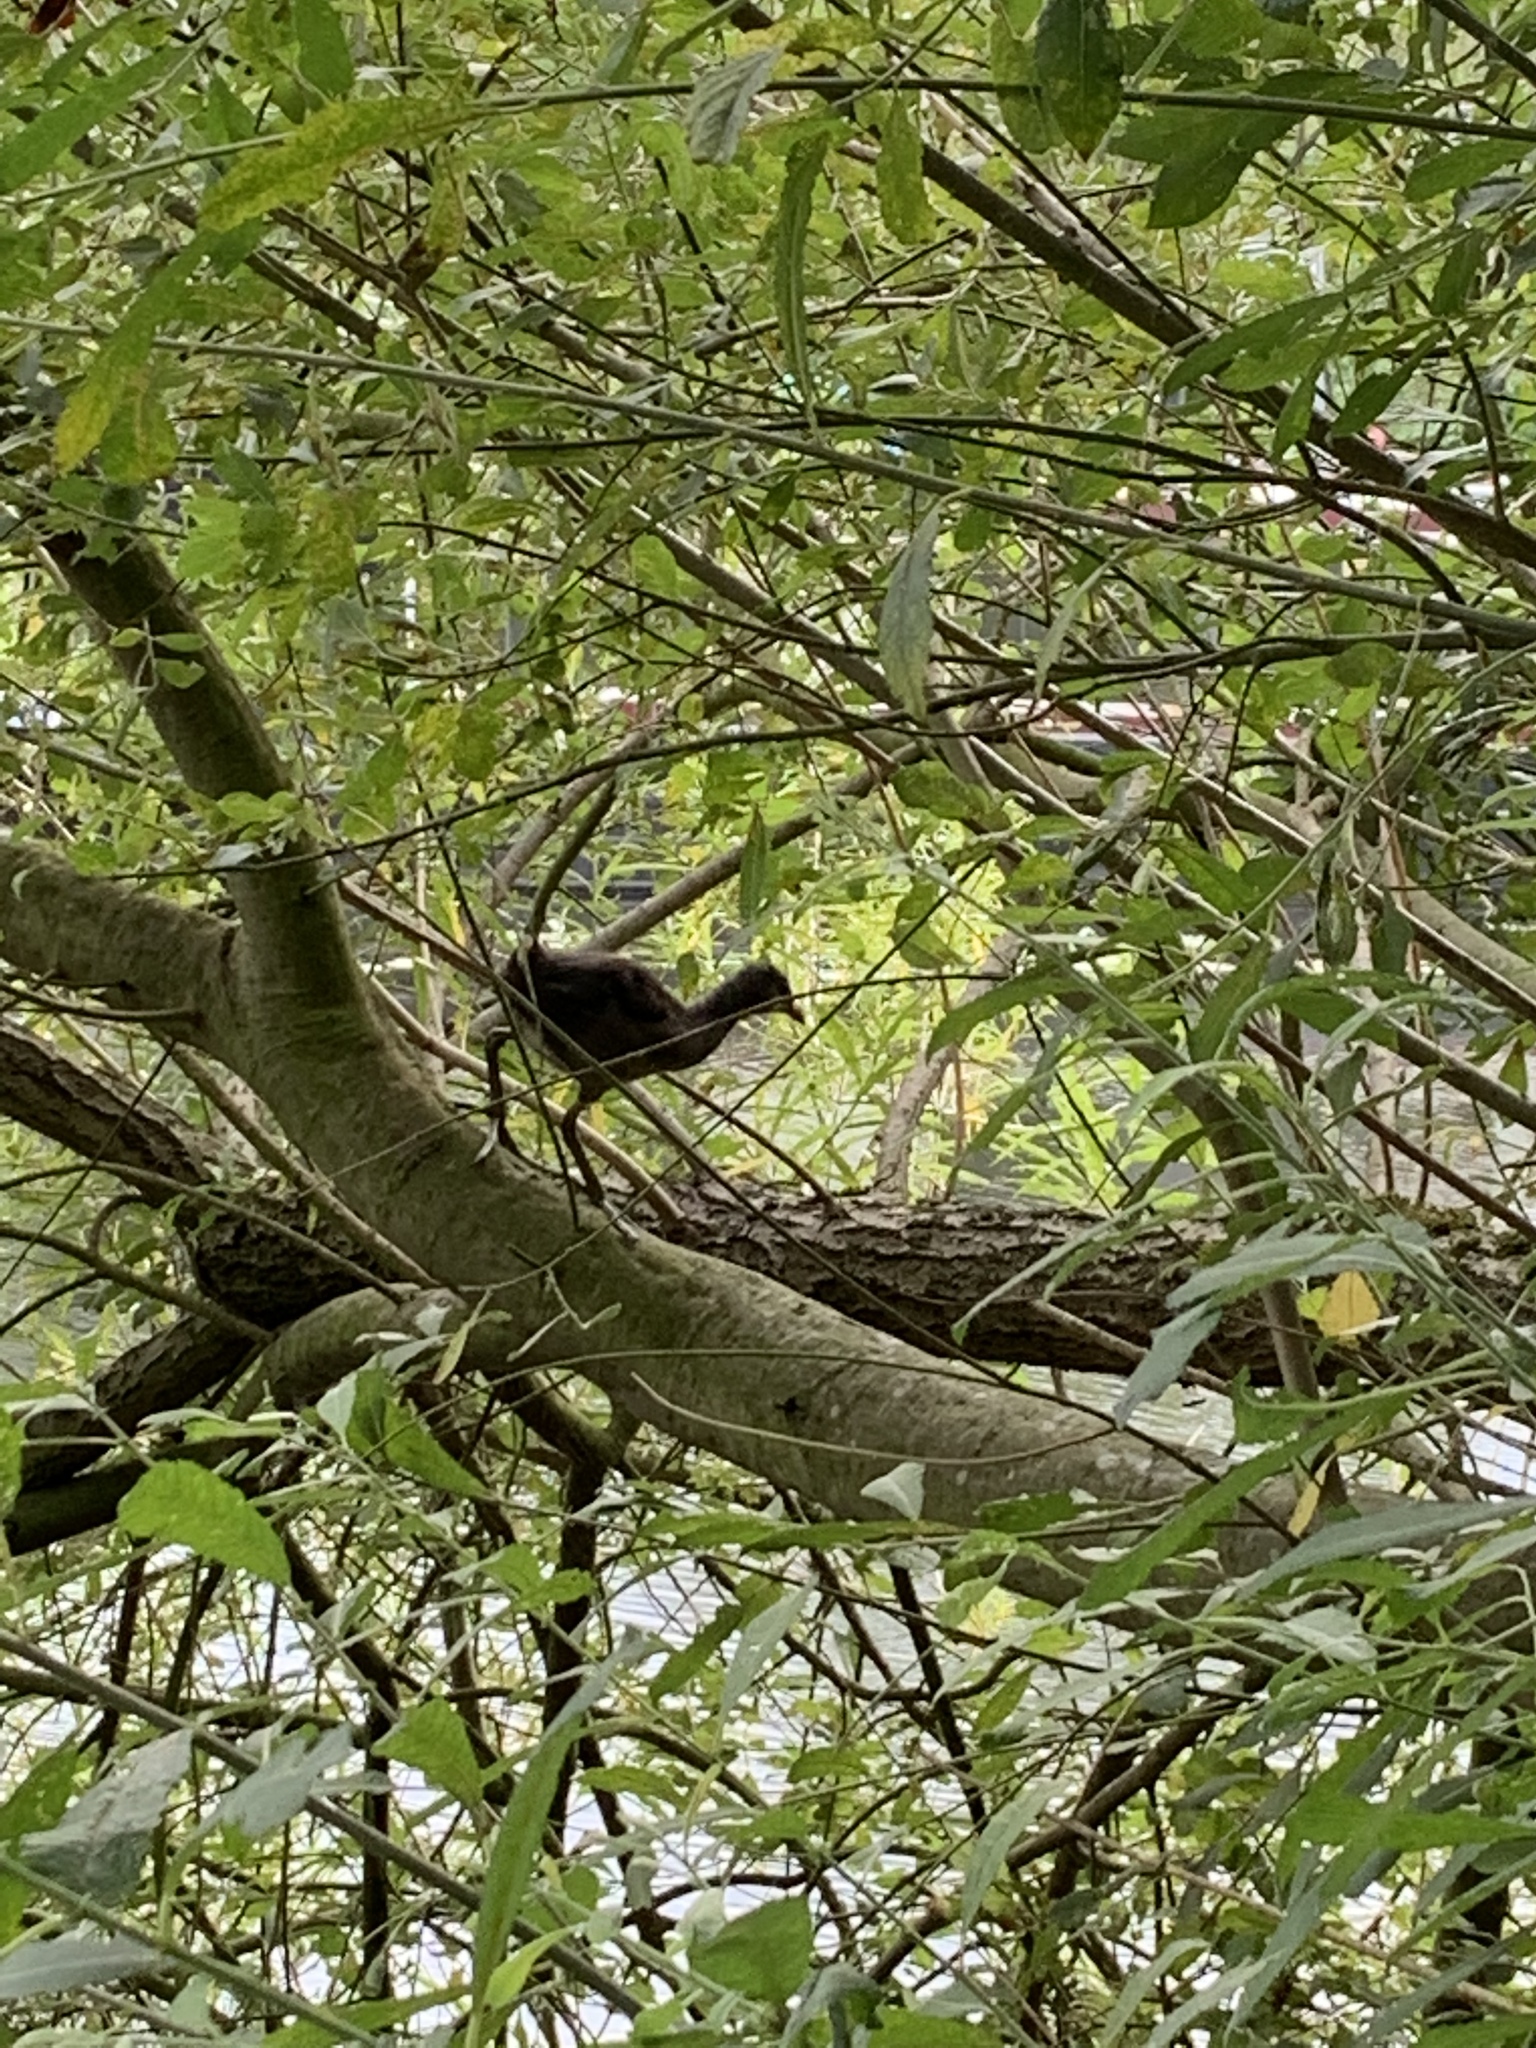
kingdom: Animalia
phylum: Chordata
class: Aves
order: Gruiformes
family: Rallidae
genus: Gallinula
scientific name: Gallinula chloropus
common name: Common moorhen
